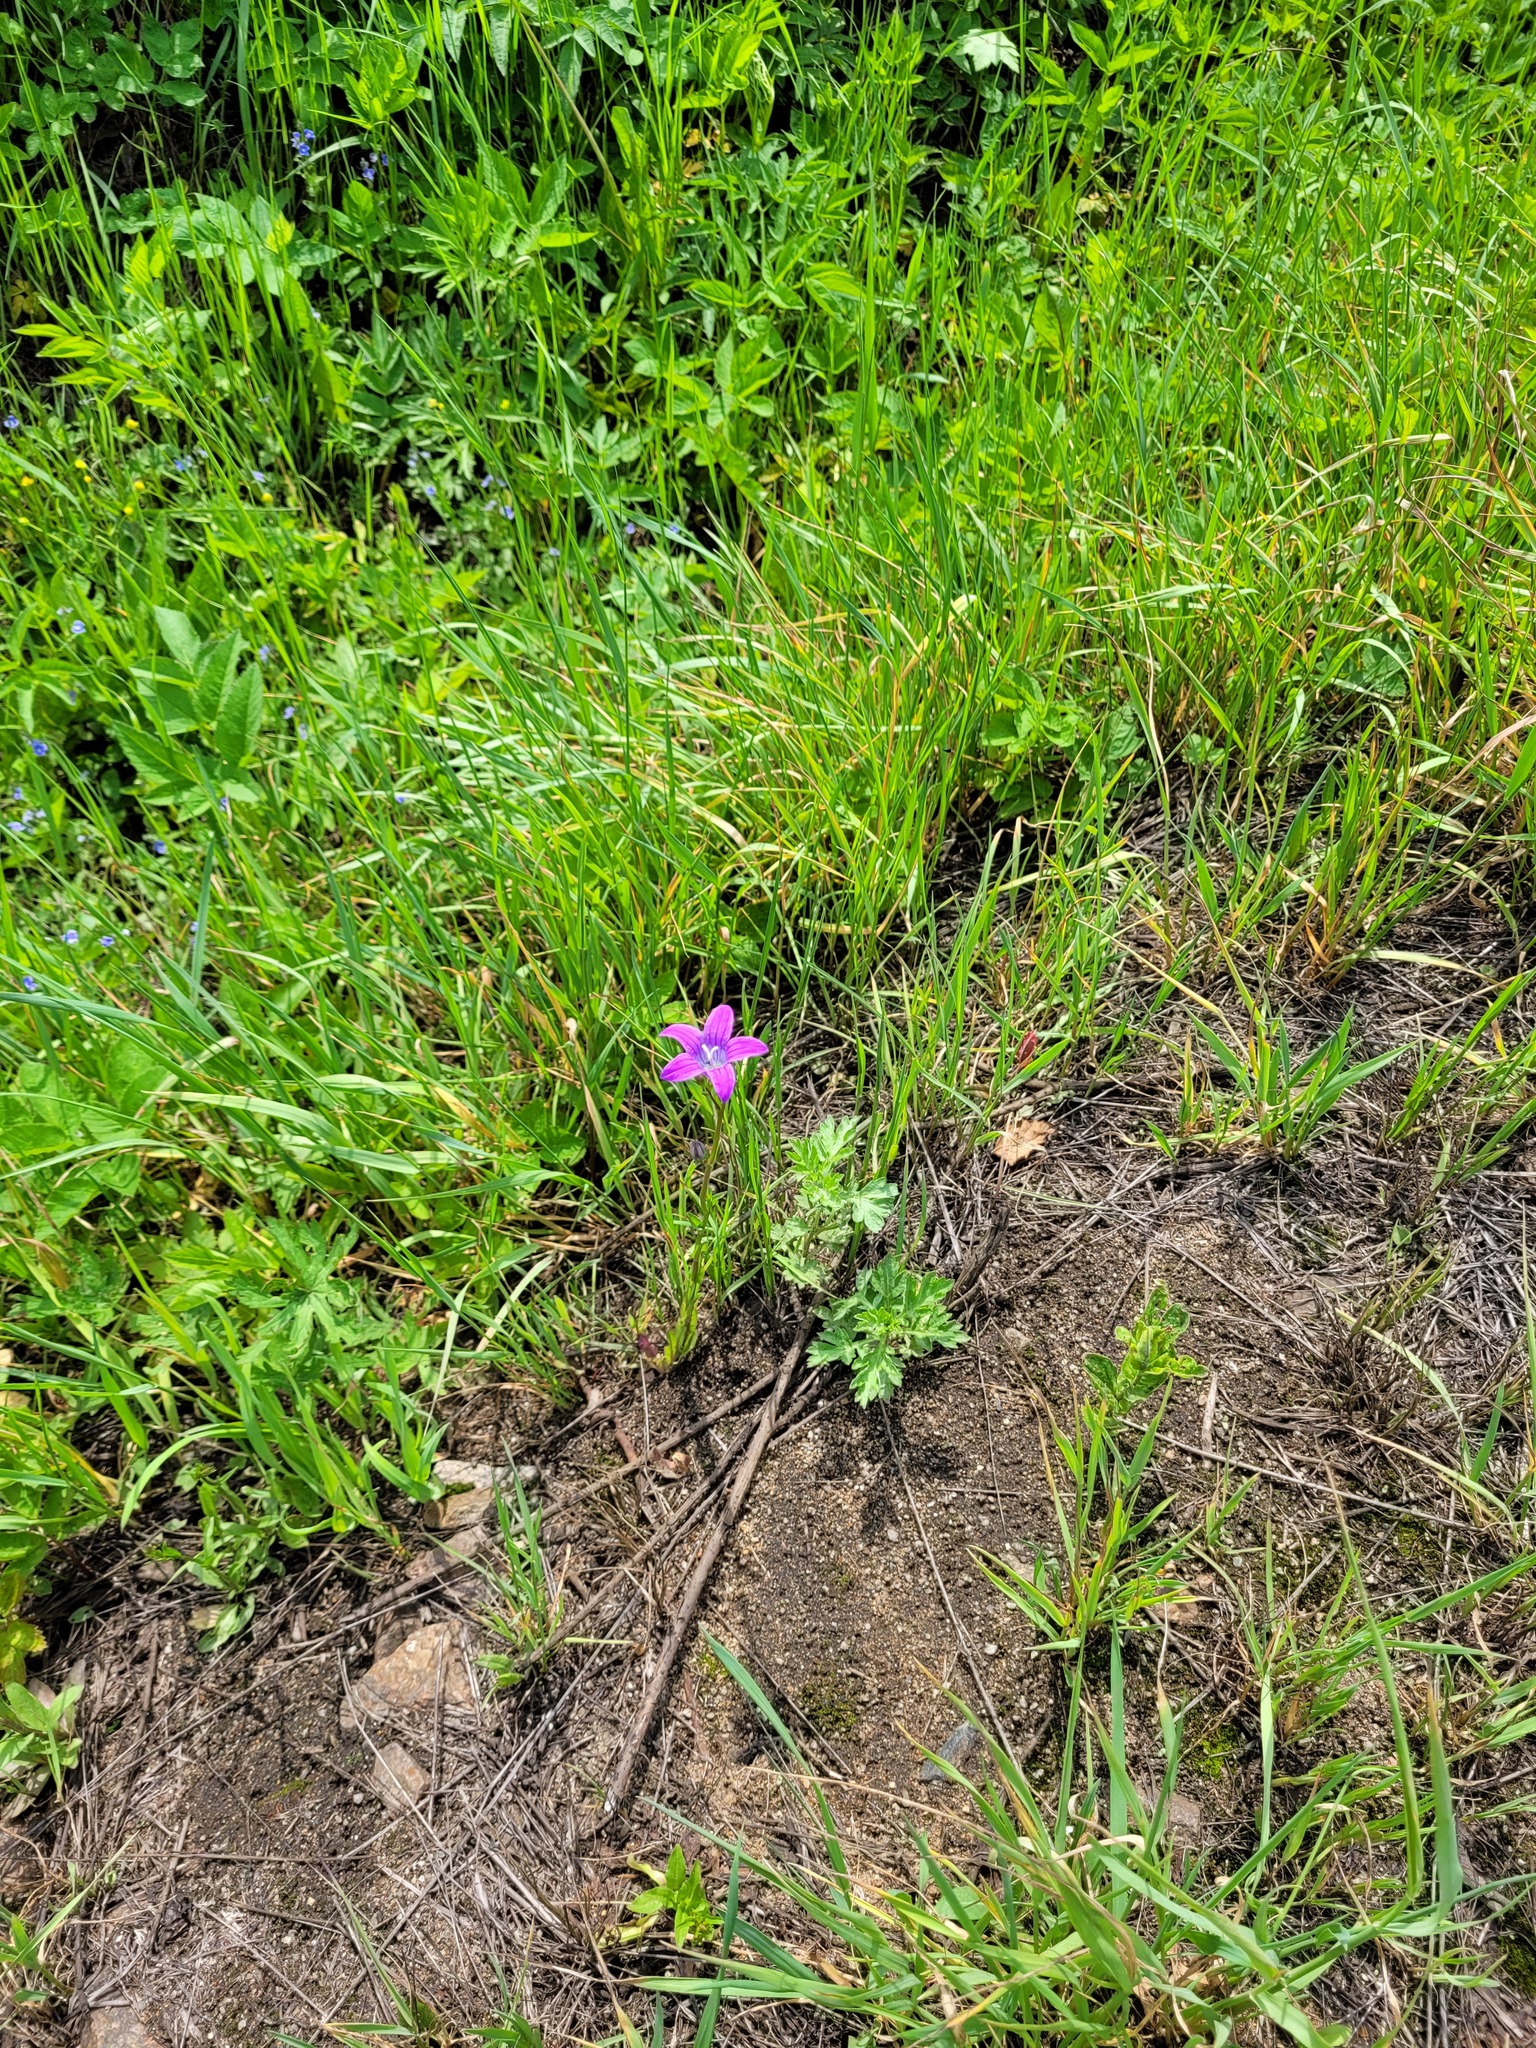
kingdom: Plantae
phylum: Tracheophyta
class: Magnoliopsida
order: Asterales
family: Campanulaceae
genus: Campanula
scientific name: Campanula patula
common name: Spreading bellflower
